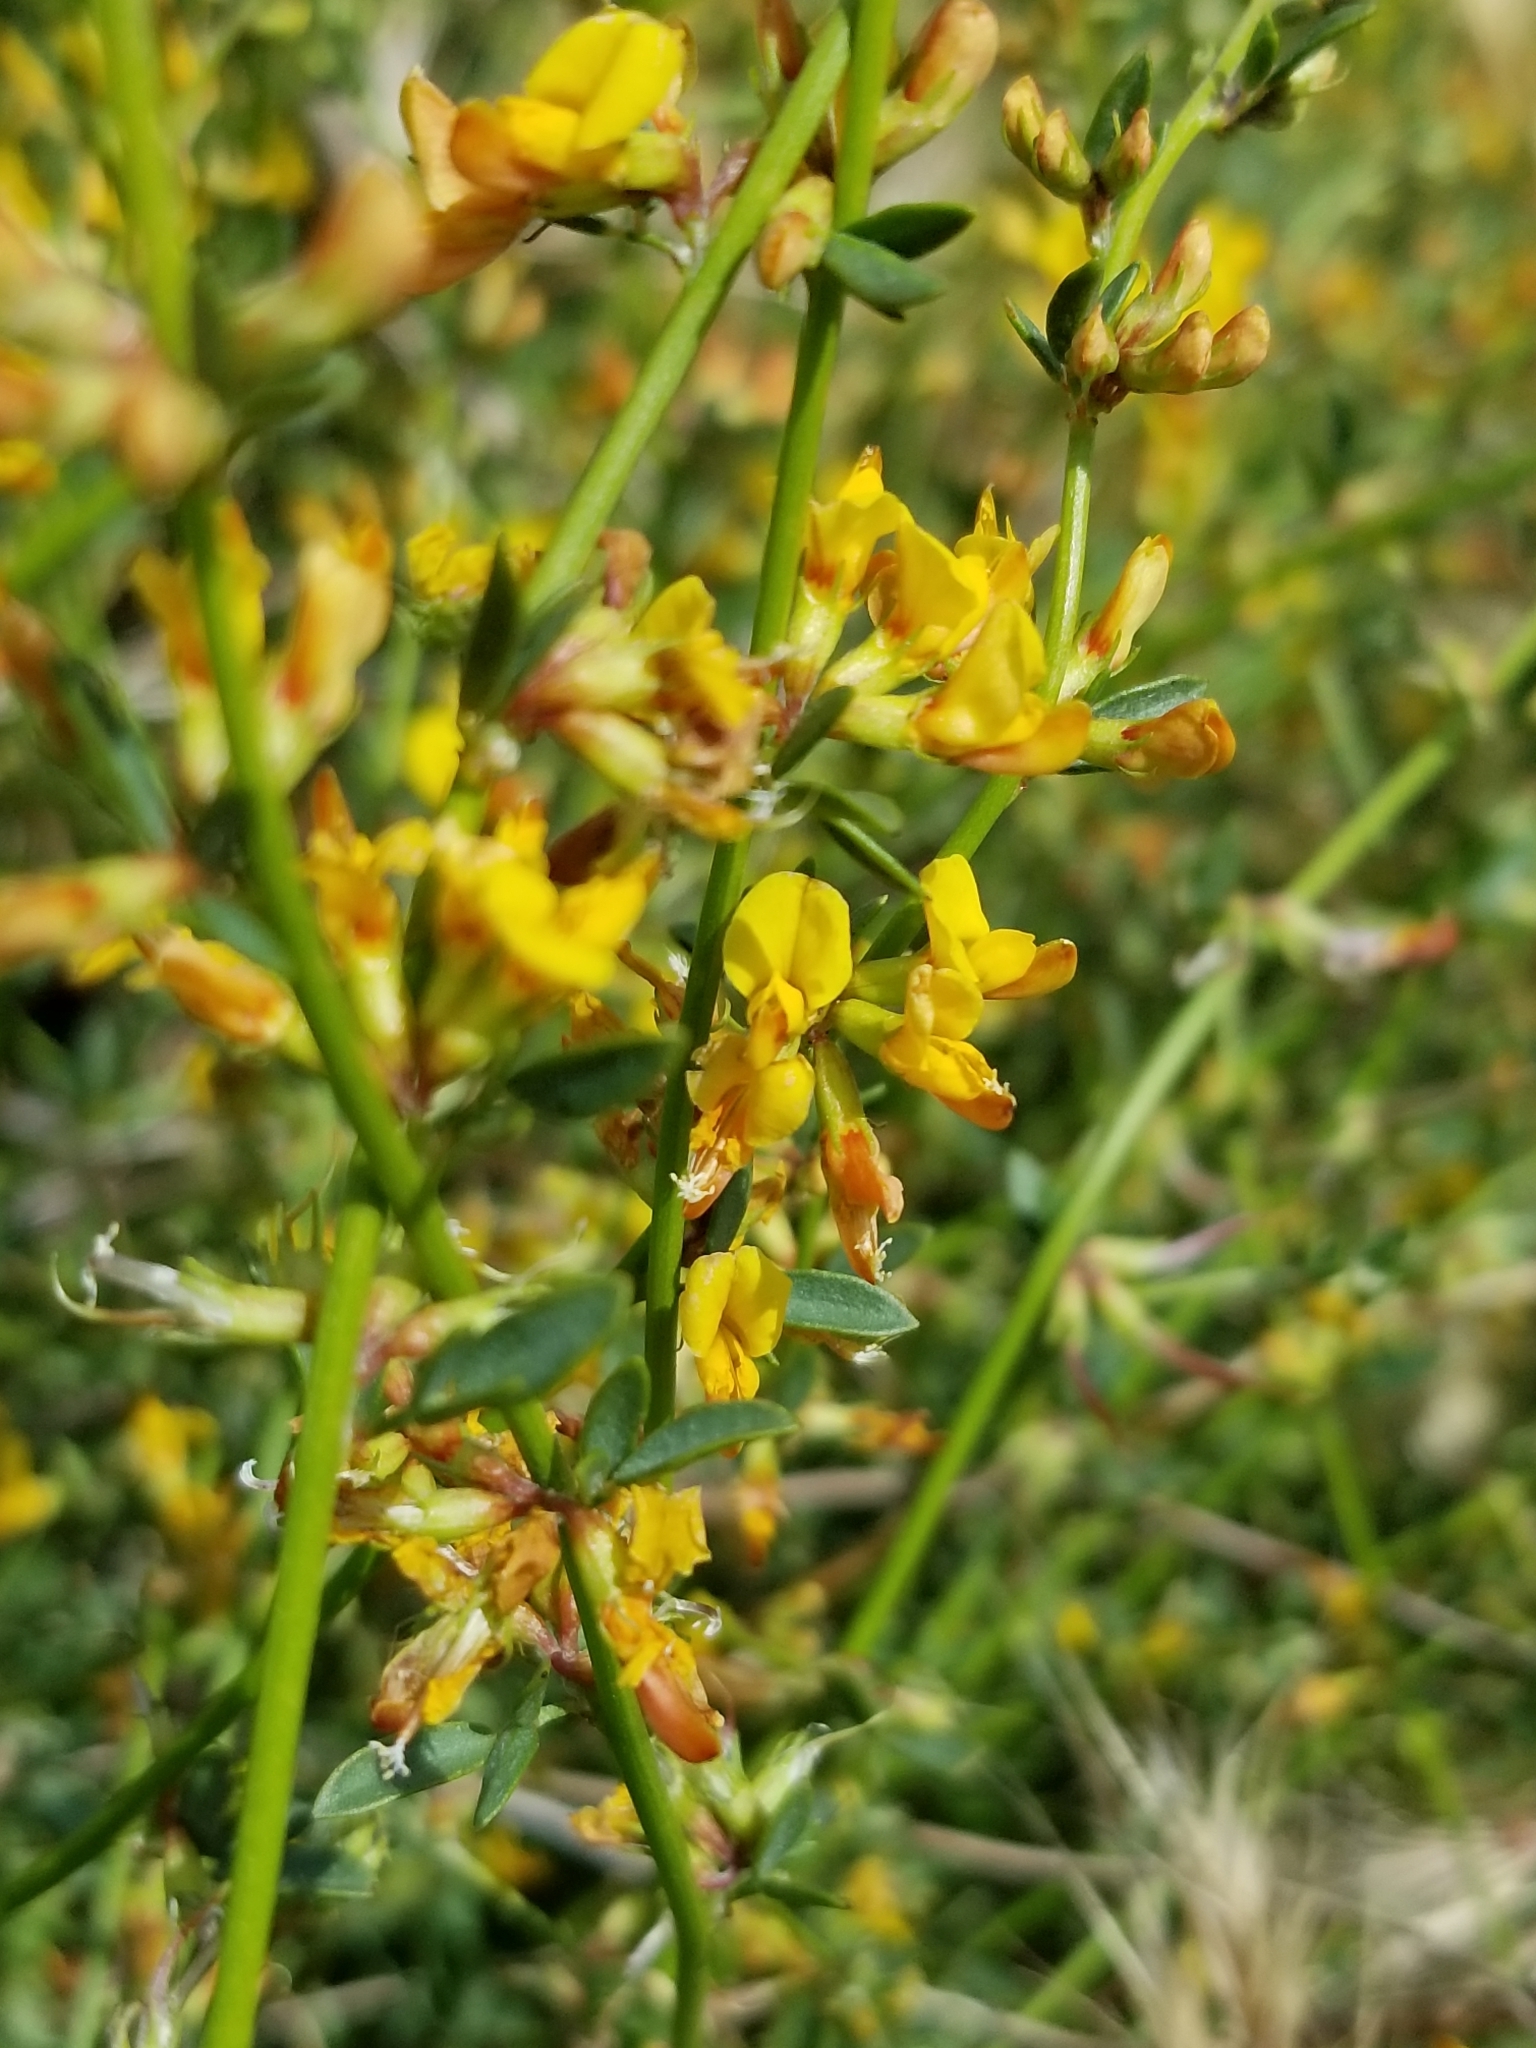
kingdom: Plantae
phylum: Tracheophyta
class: Magnoliopsida
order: Fabales
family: Fabaceae
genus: Acmispon
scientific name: Acmispon glaber
